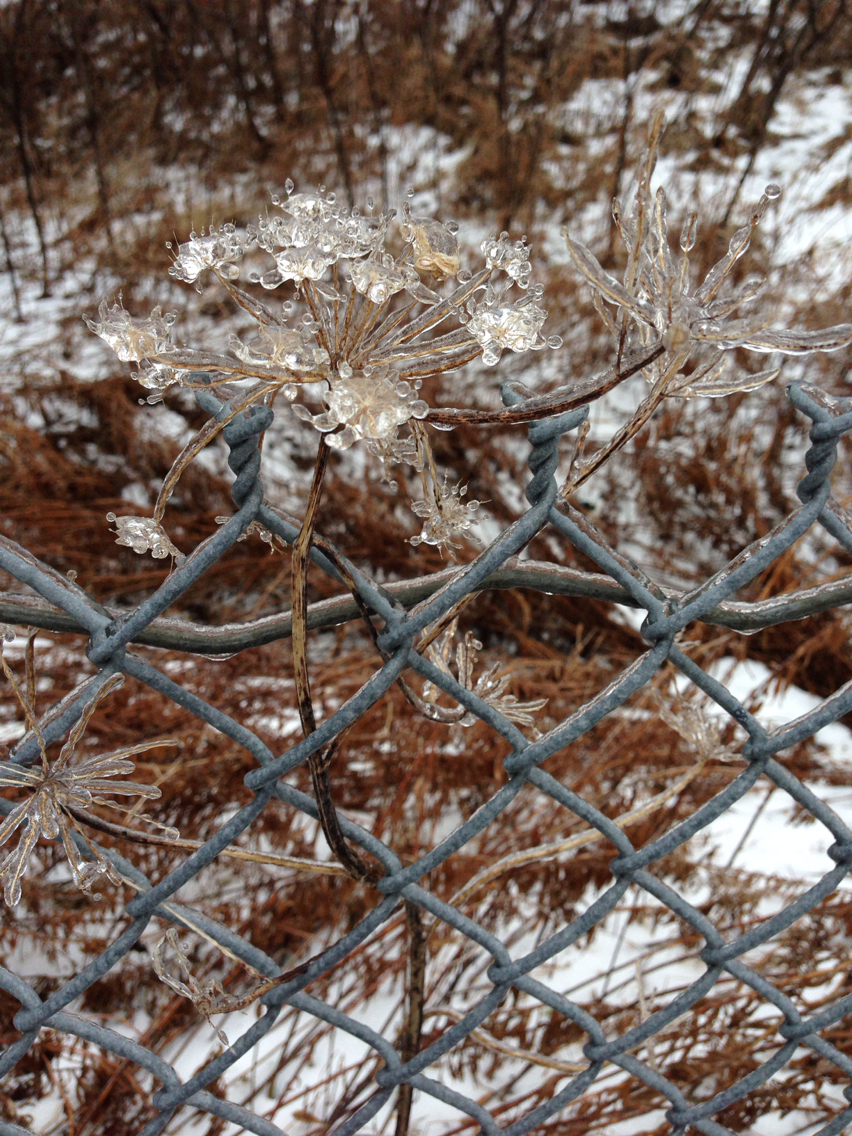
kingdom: Plantae
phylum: Tracheophyta
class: Magnoliopsida
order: Apiales
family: Apiaceae
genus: Pastinaca
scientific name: Pastinaca sativa
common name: Wild parsnip
